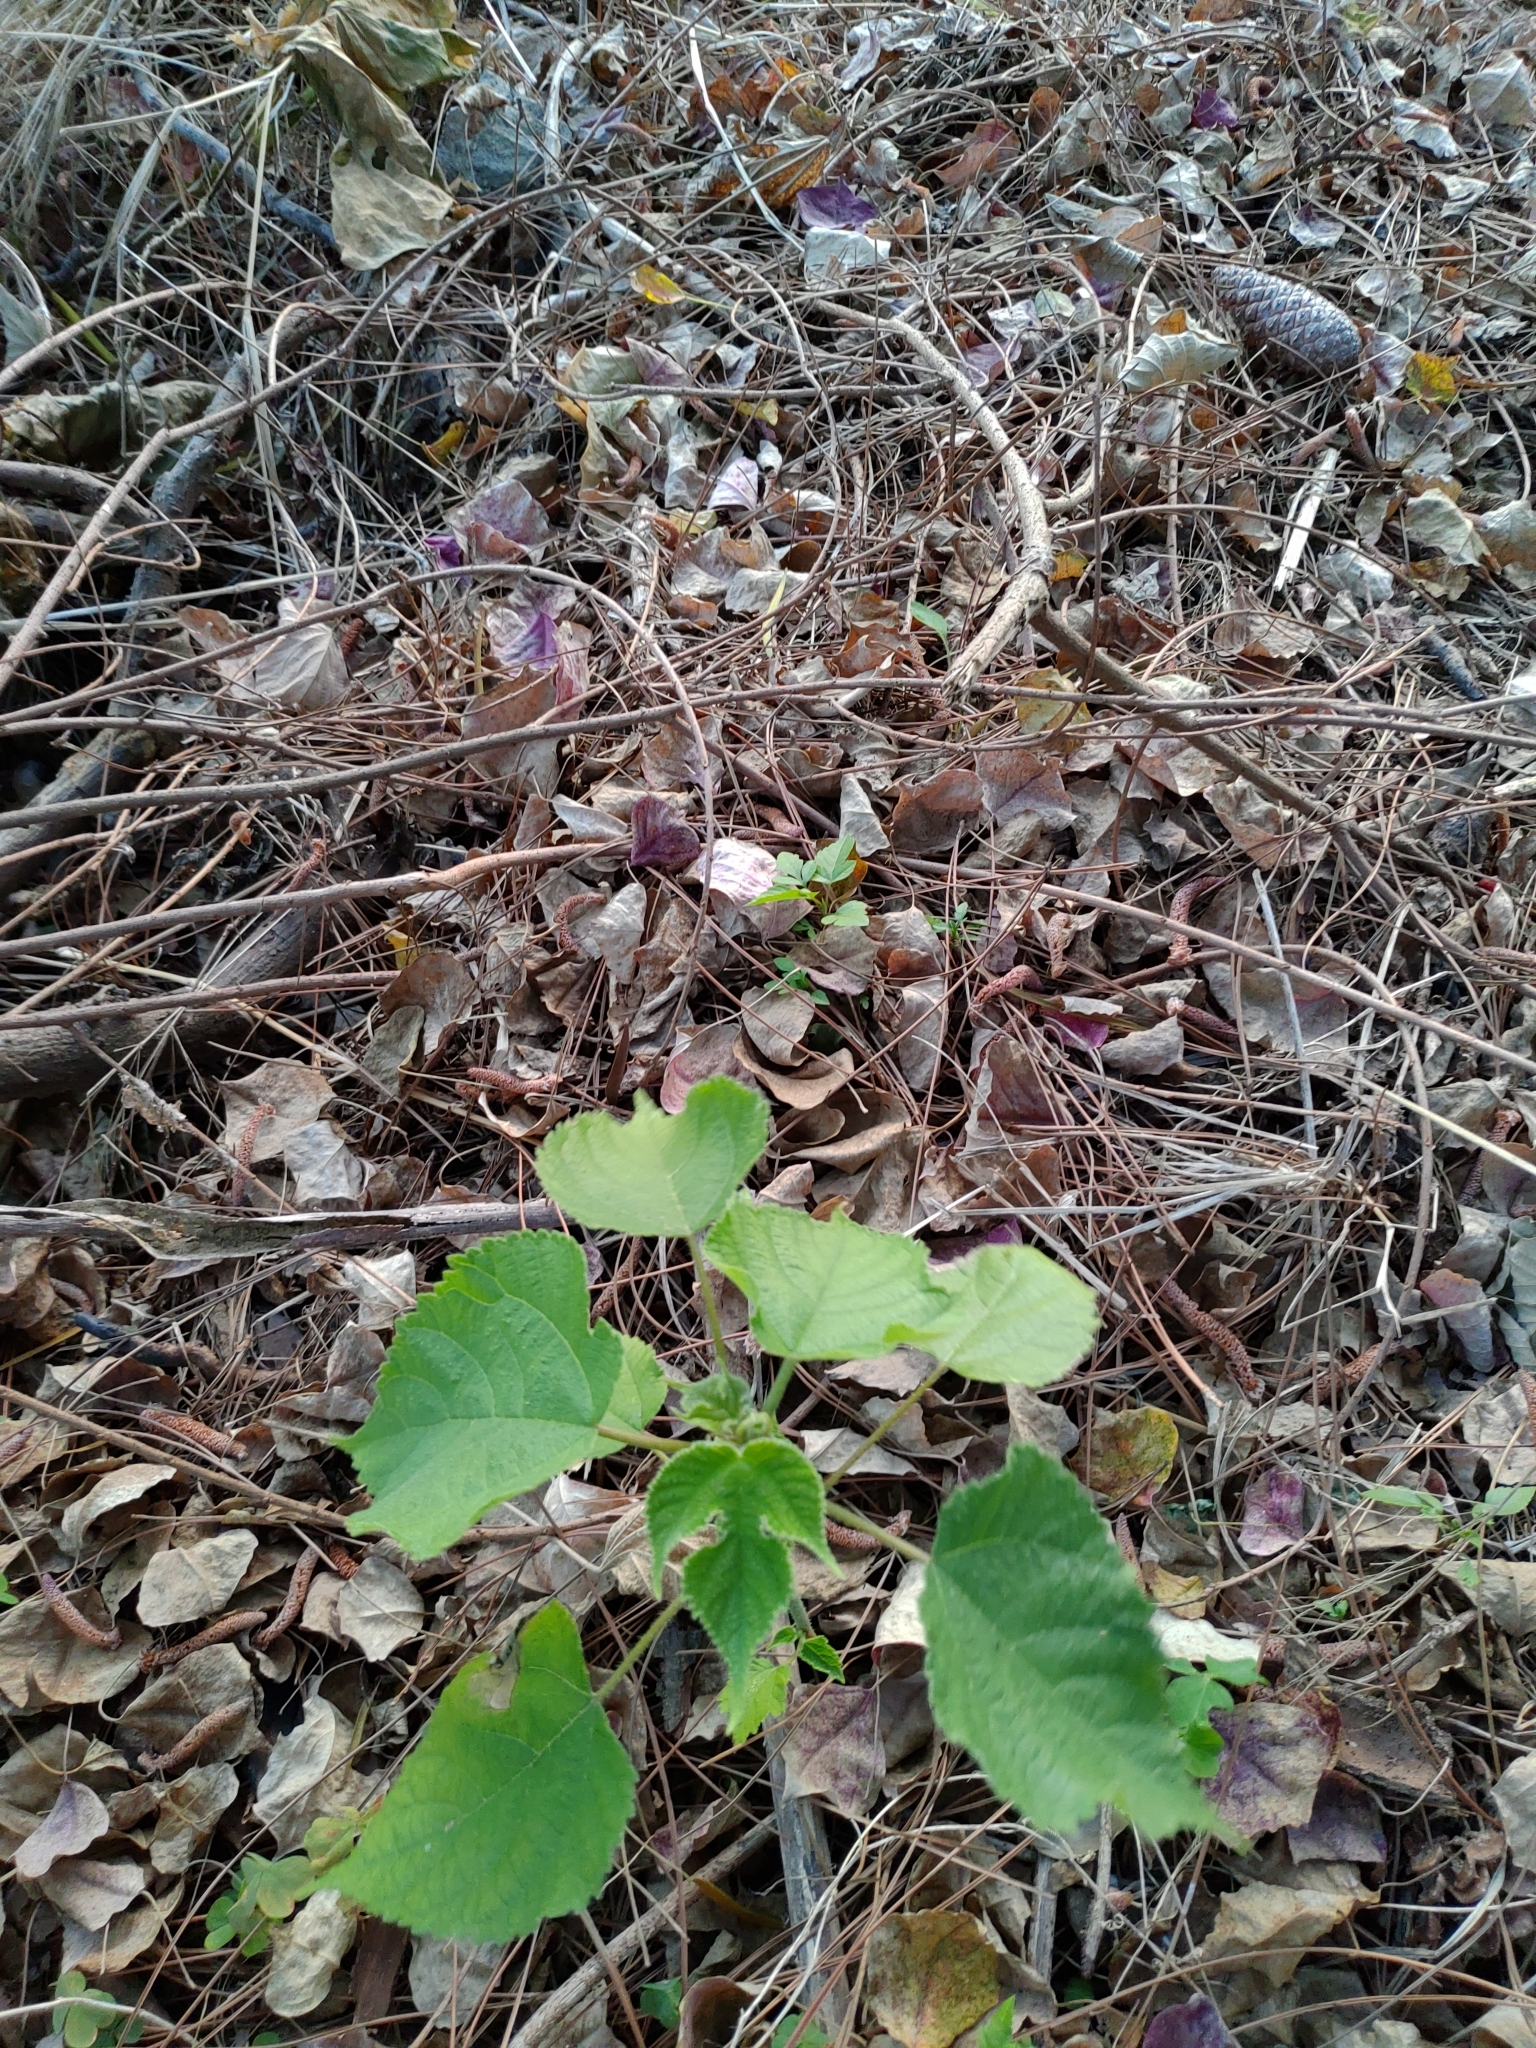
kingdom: Plantae
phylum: Tracheophyta
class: Magnoliopsida
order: Rosales
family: Moraceae
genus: Broussonetia
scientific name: Broussonetia papyrifera
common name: Paper mulberry
